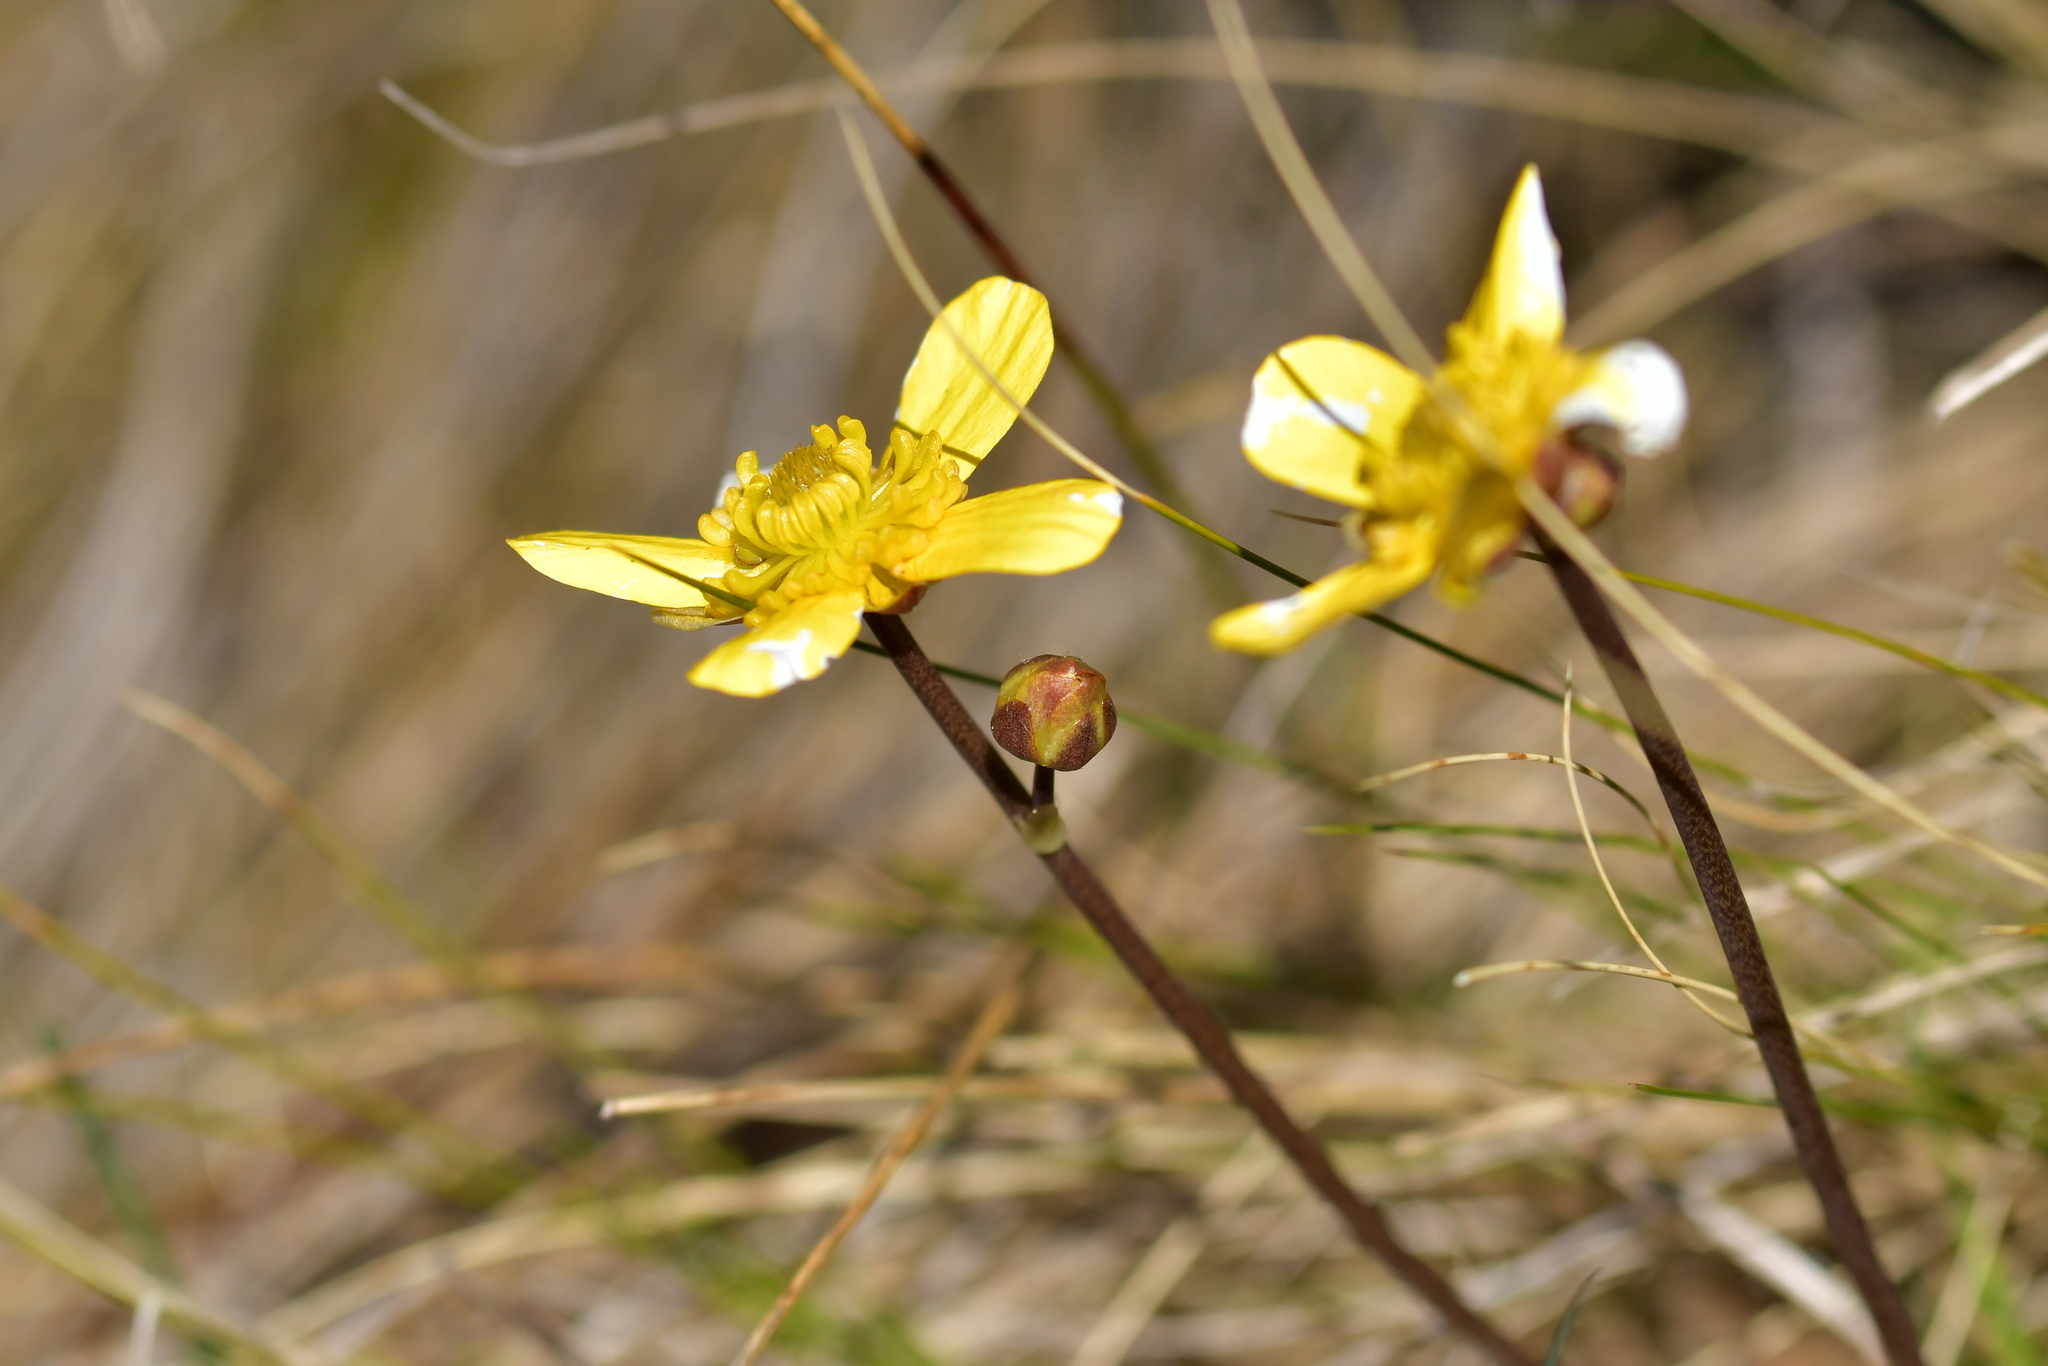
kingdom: Plantae
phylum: Tracheophyta
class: Magnoliopsida
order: Ranunculales
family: Ranunculaceae
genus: Ranunculus
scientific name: Ranunculus insignis
